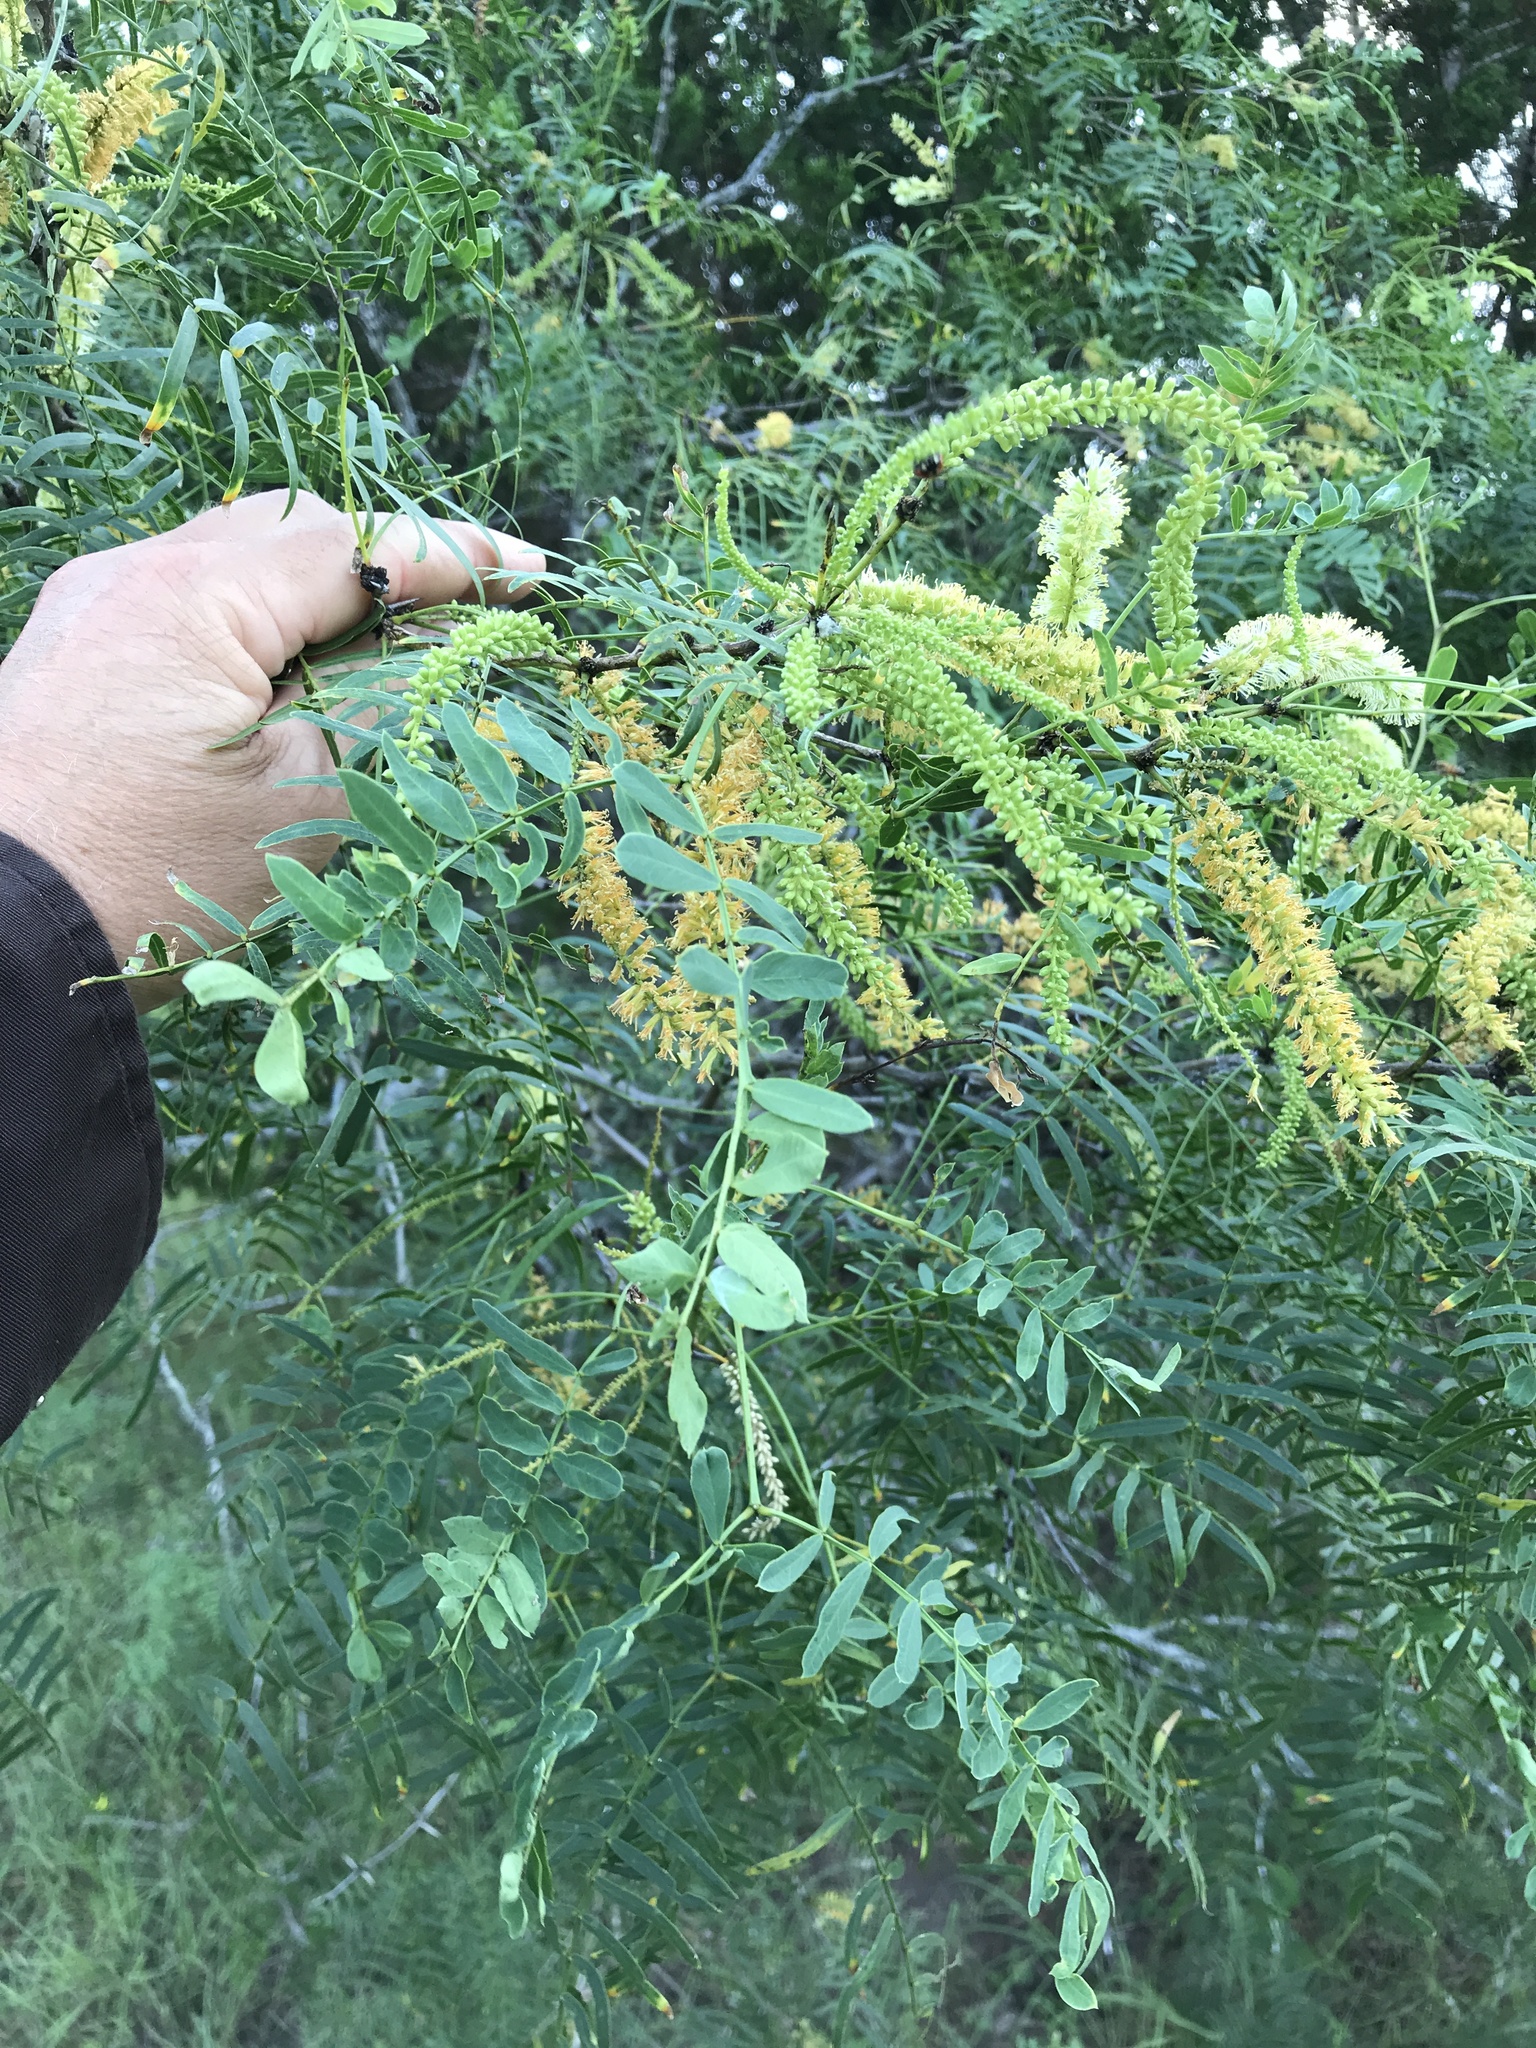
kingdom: Plantae
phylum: Tracheophyta
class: Magnoliopsida
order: Fabales
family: Fabaceae
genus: Prosopis
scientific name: Prosopis glandulosa
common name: Honey mesquite
